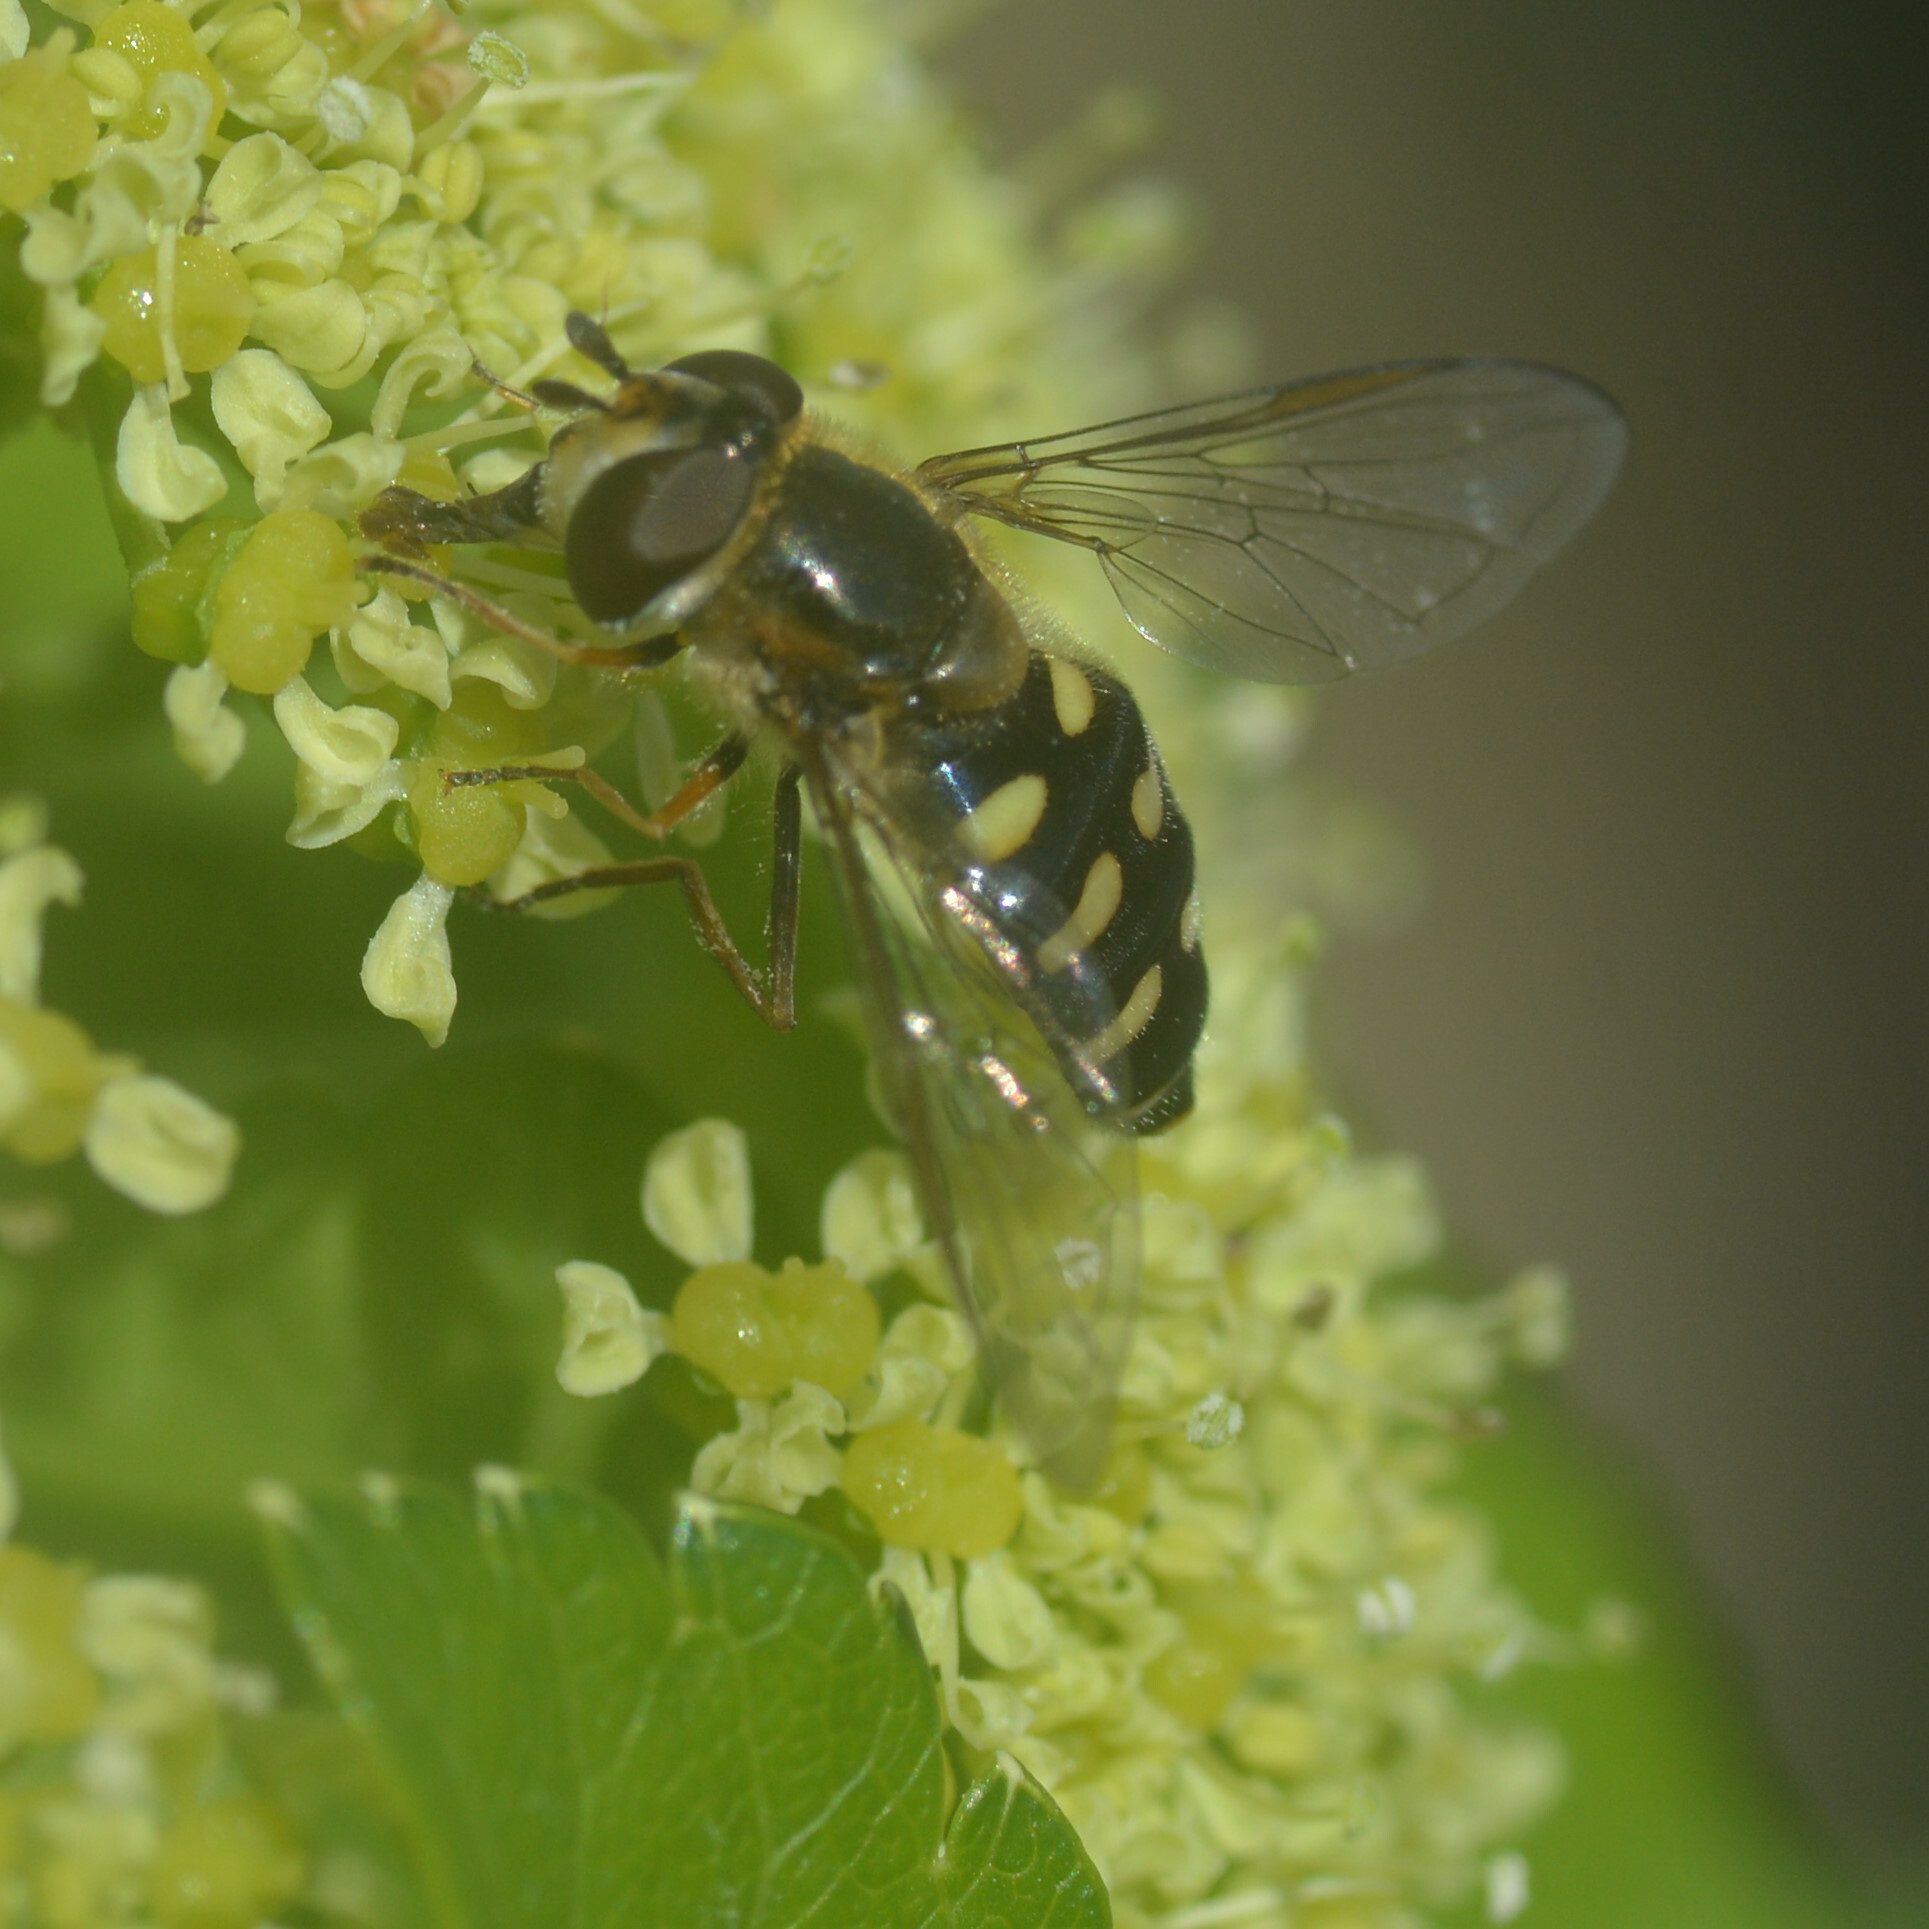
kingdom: Animalia
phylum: Arthropoda
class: Insecta
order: Diptera
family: Syrphidae
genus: Eupeodes
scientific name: Eupeodes luniger
